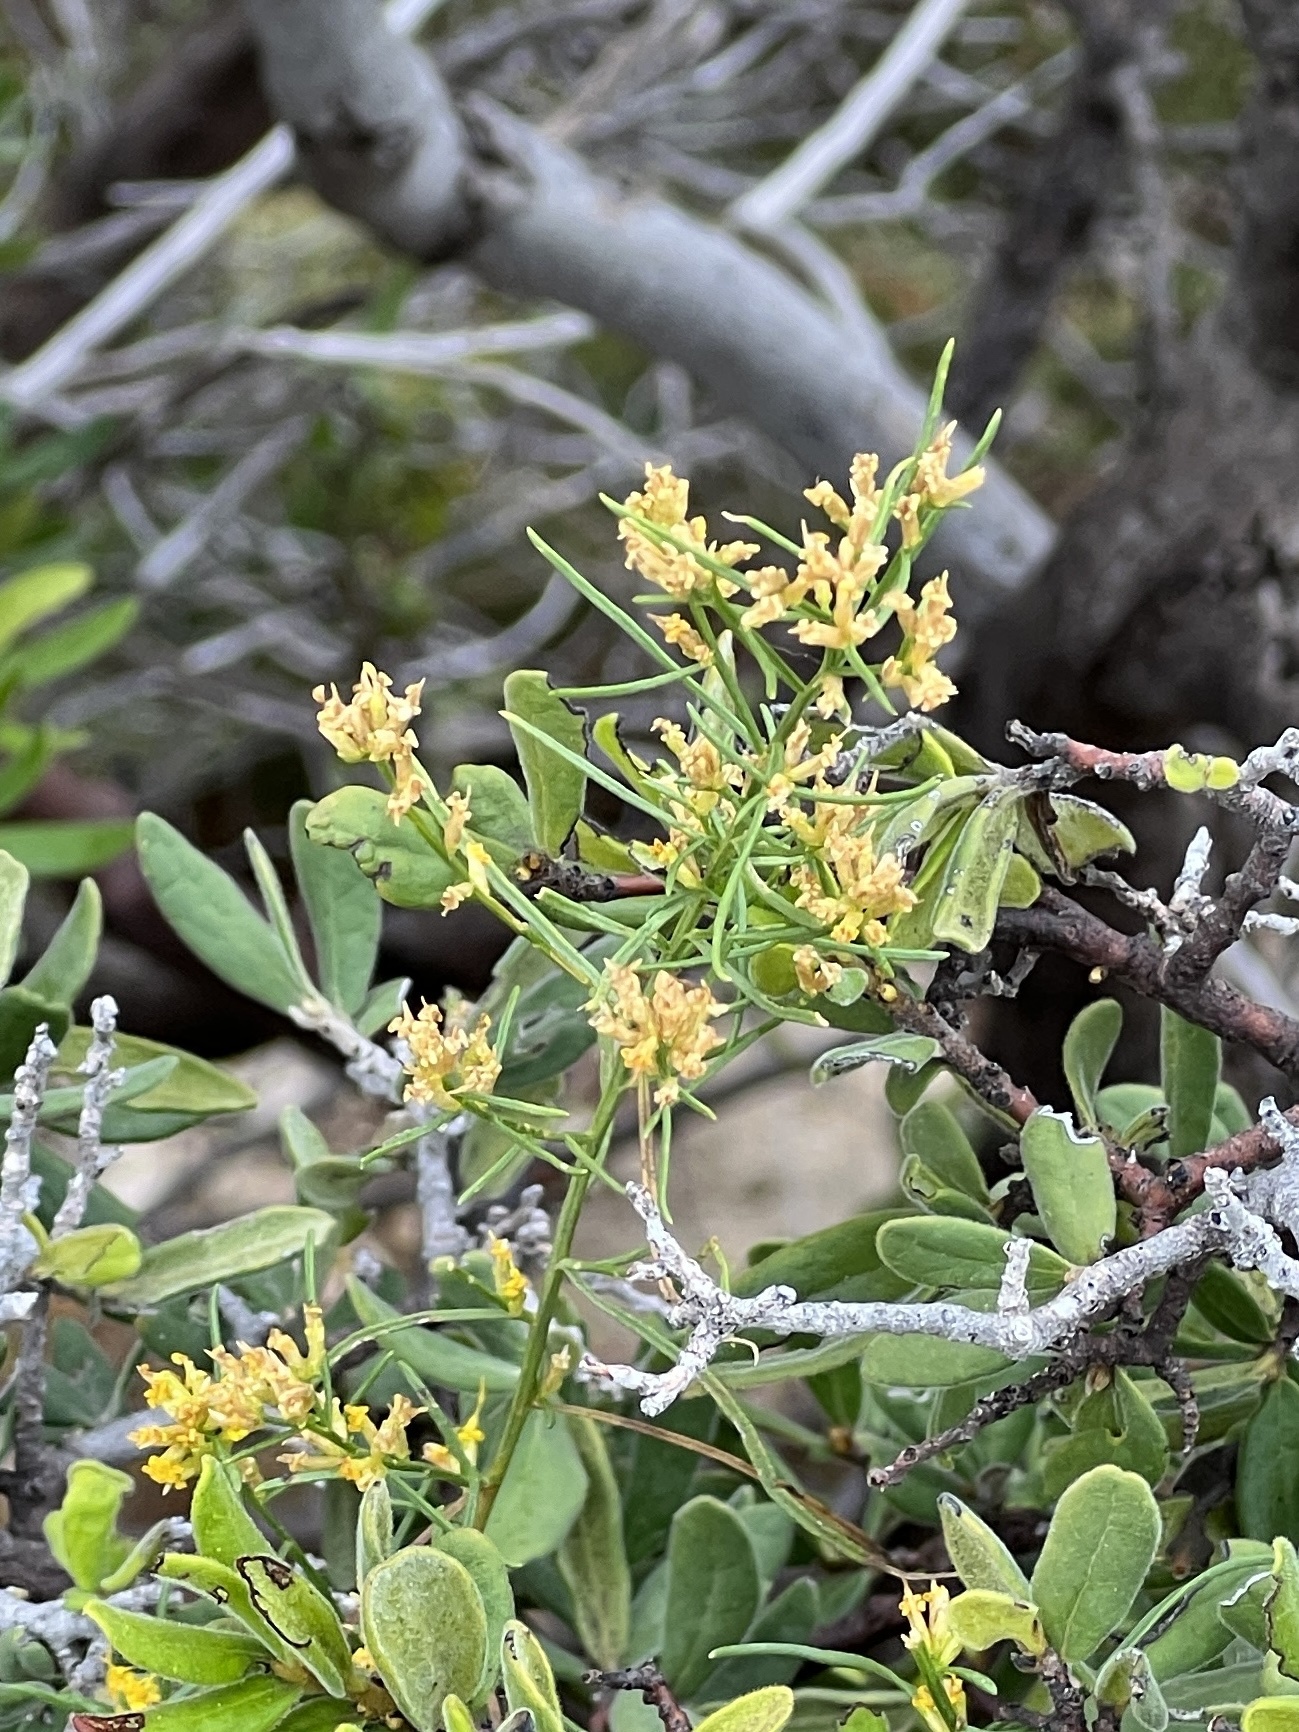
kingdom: Plantae
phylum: Tracheophyta
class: Magnoliopsida
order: Asterales
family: Asteraceae
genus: Gutierrezia
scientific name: Gutierrezia microcephala
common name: Thread snakeweed
